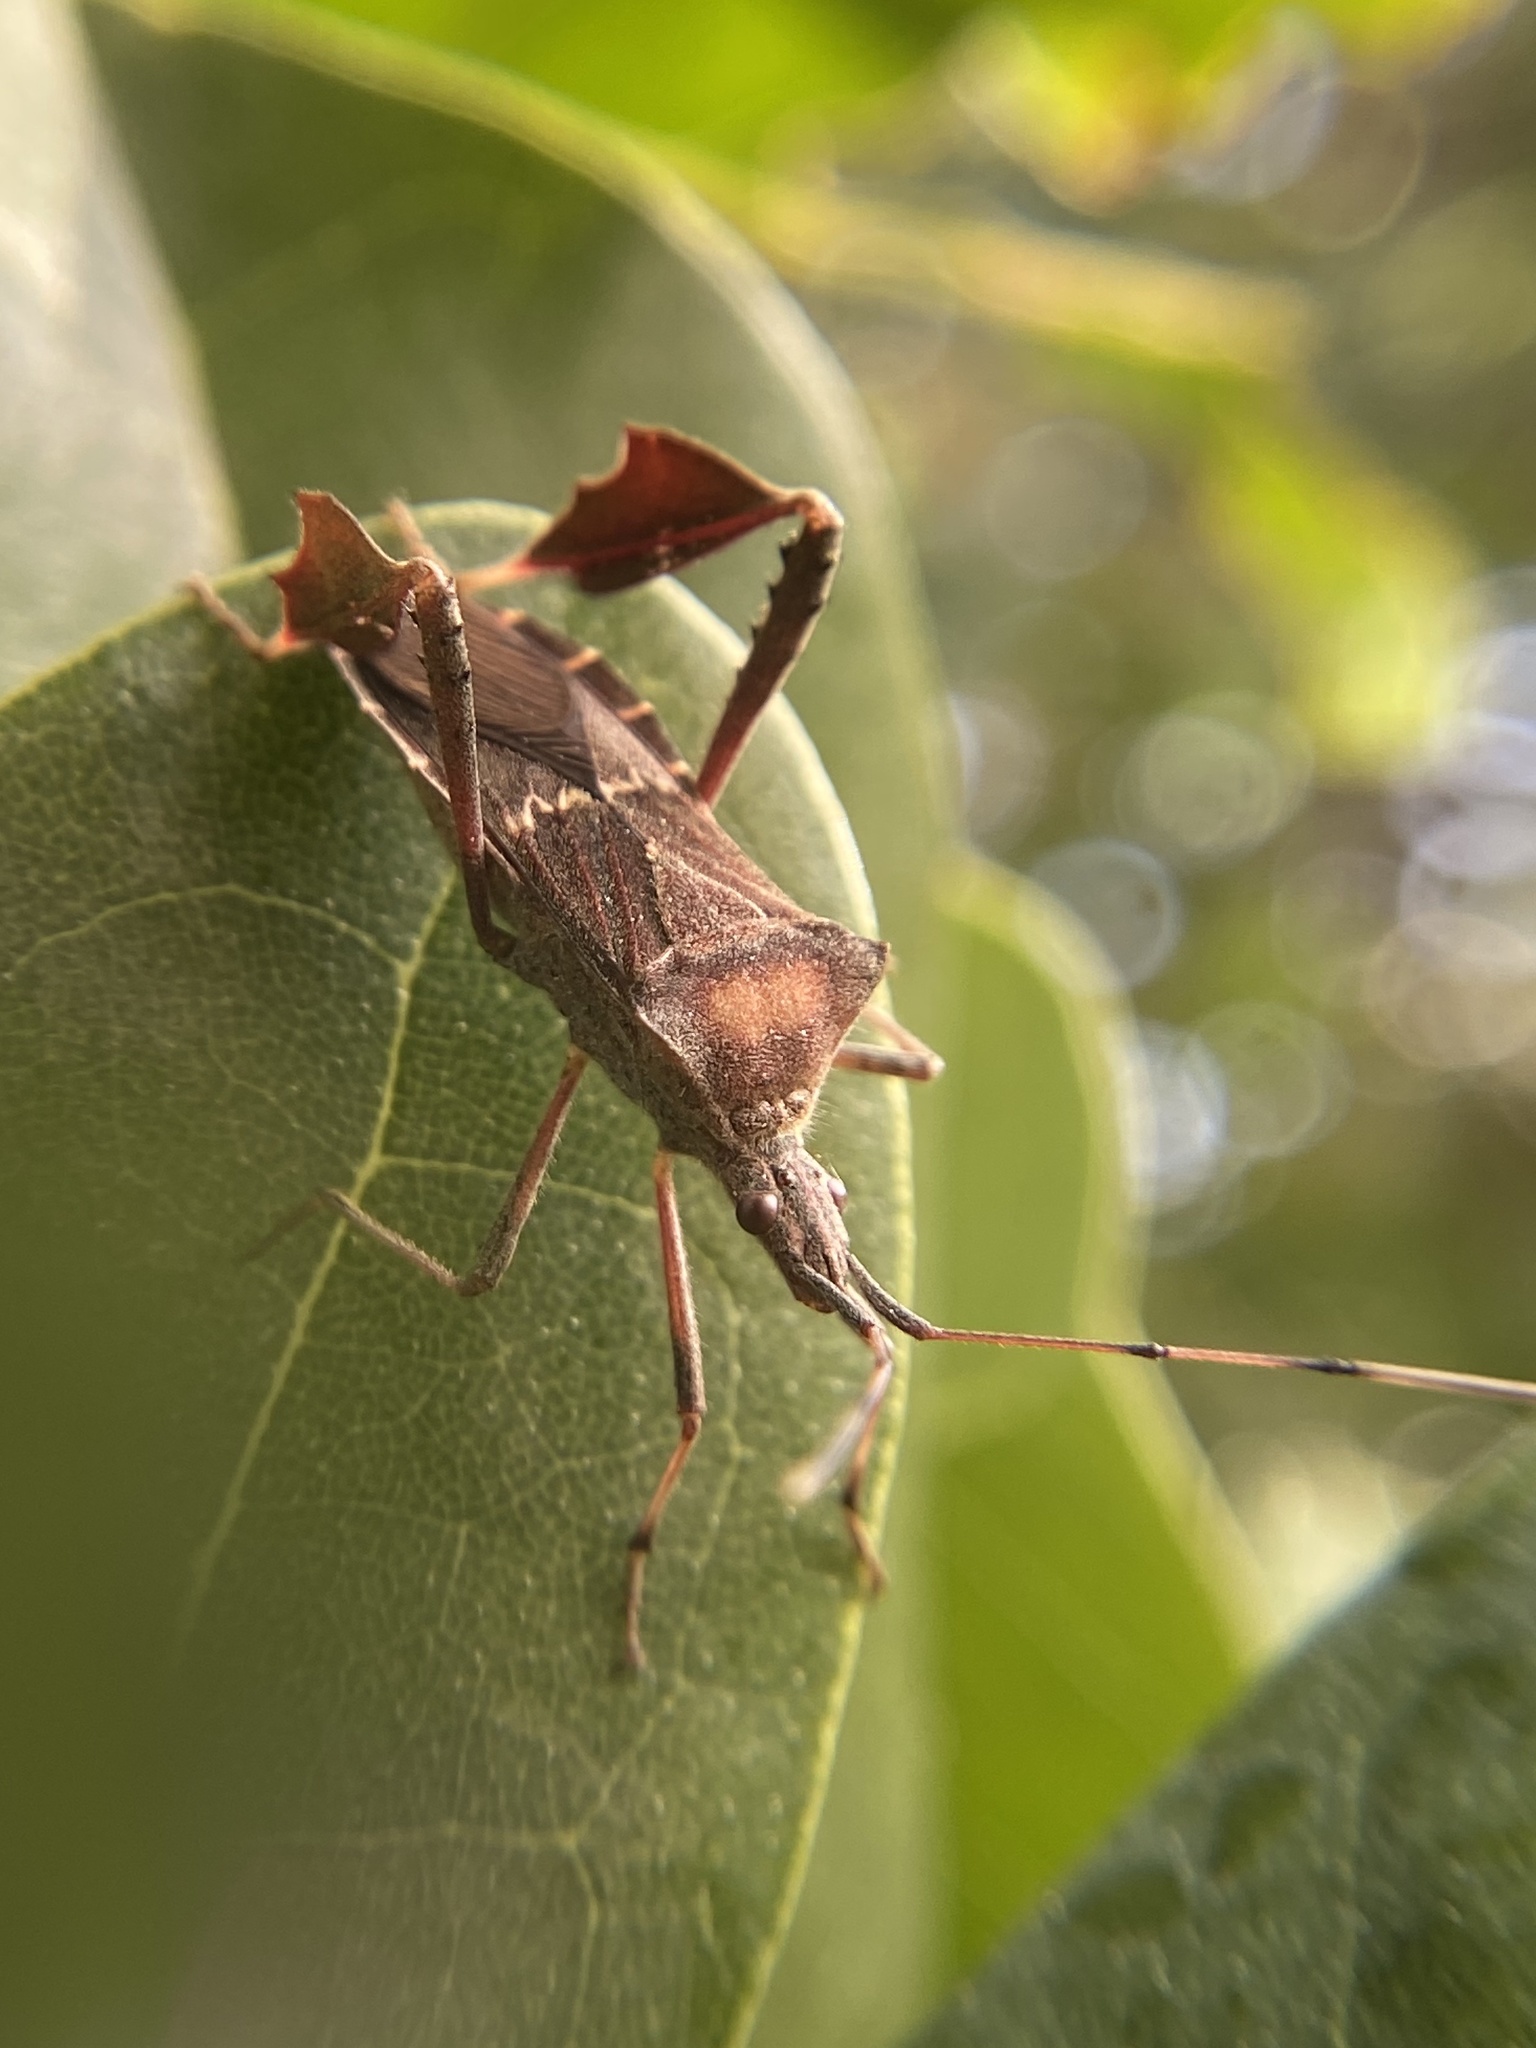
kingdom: Animalia
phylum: Arthropoda
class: Insecta
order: Hemiptera
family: Coreidae
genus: Leptoglossus
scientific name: Leptoglossus concolor
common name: Leaf-footed bug
